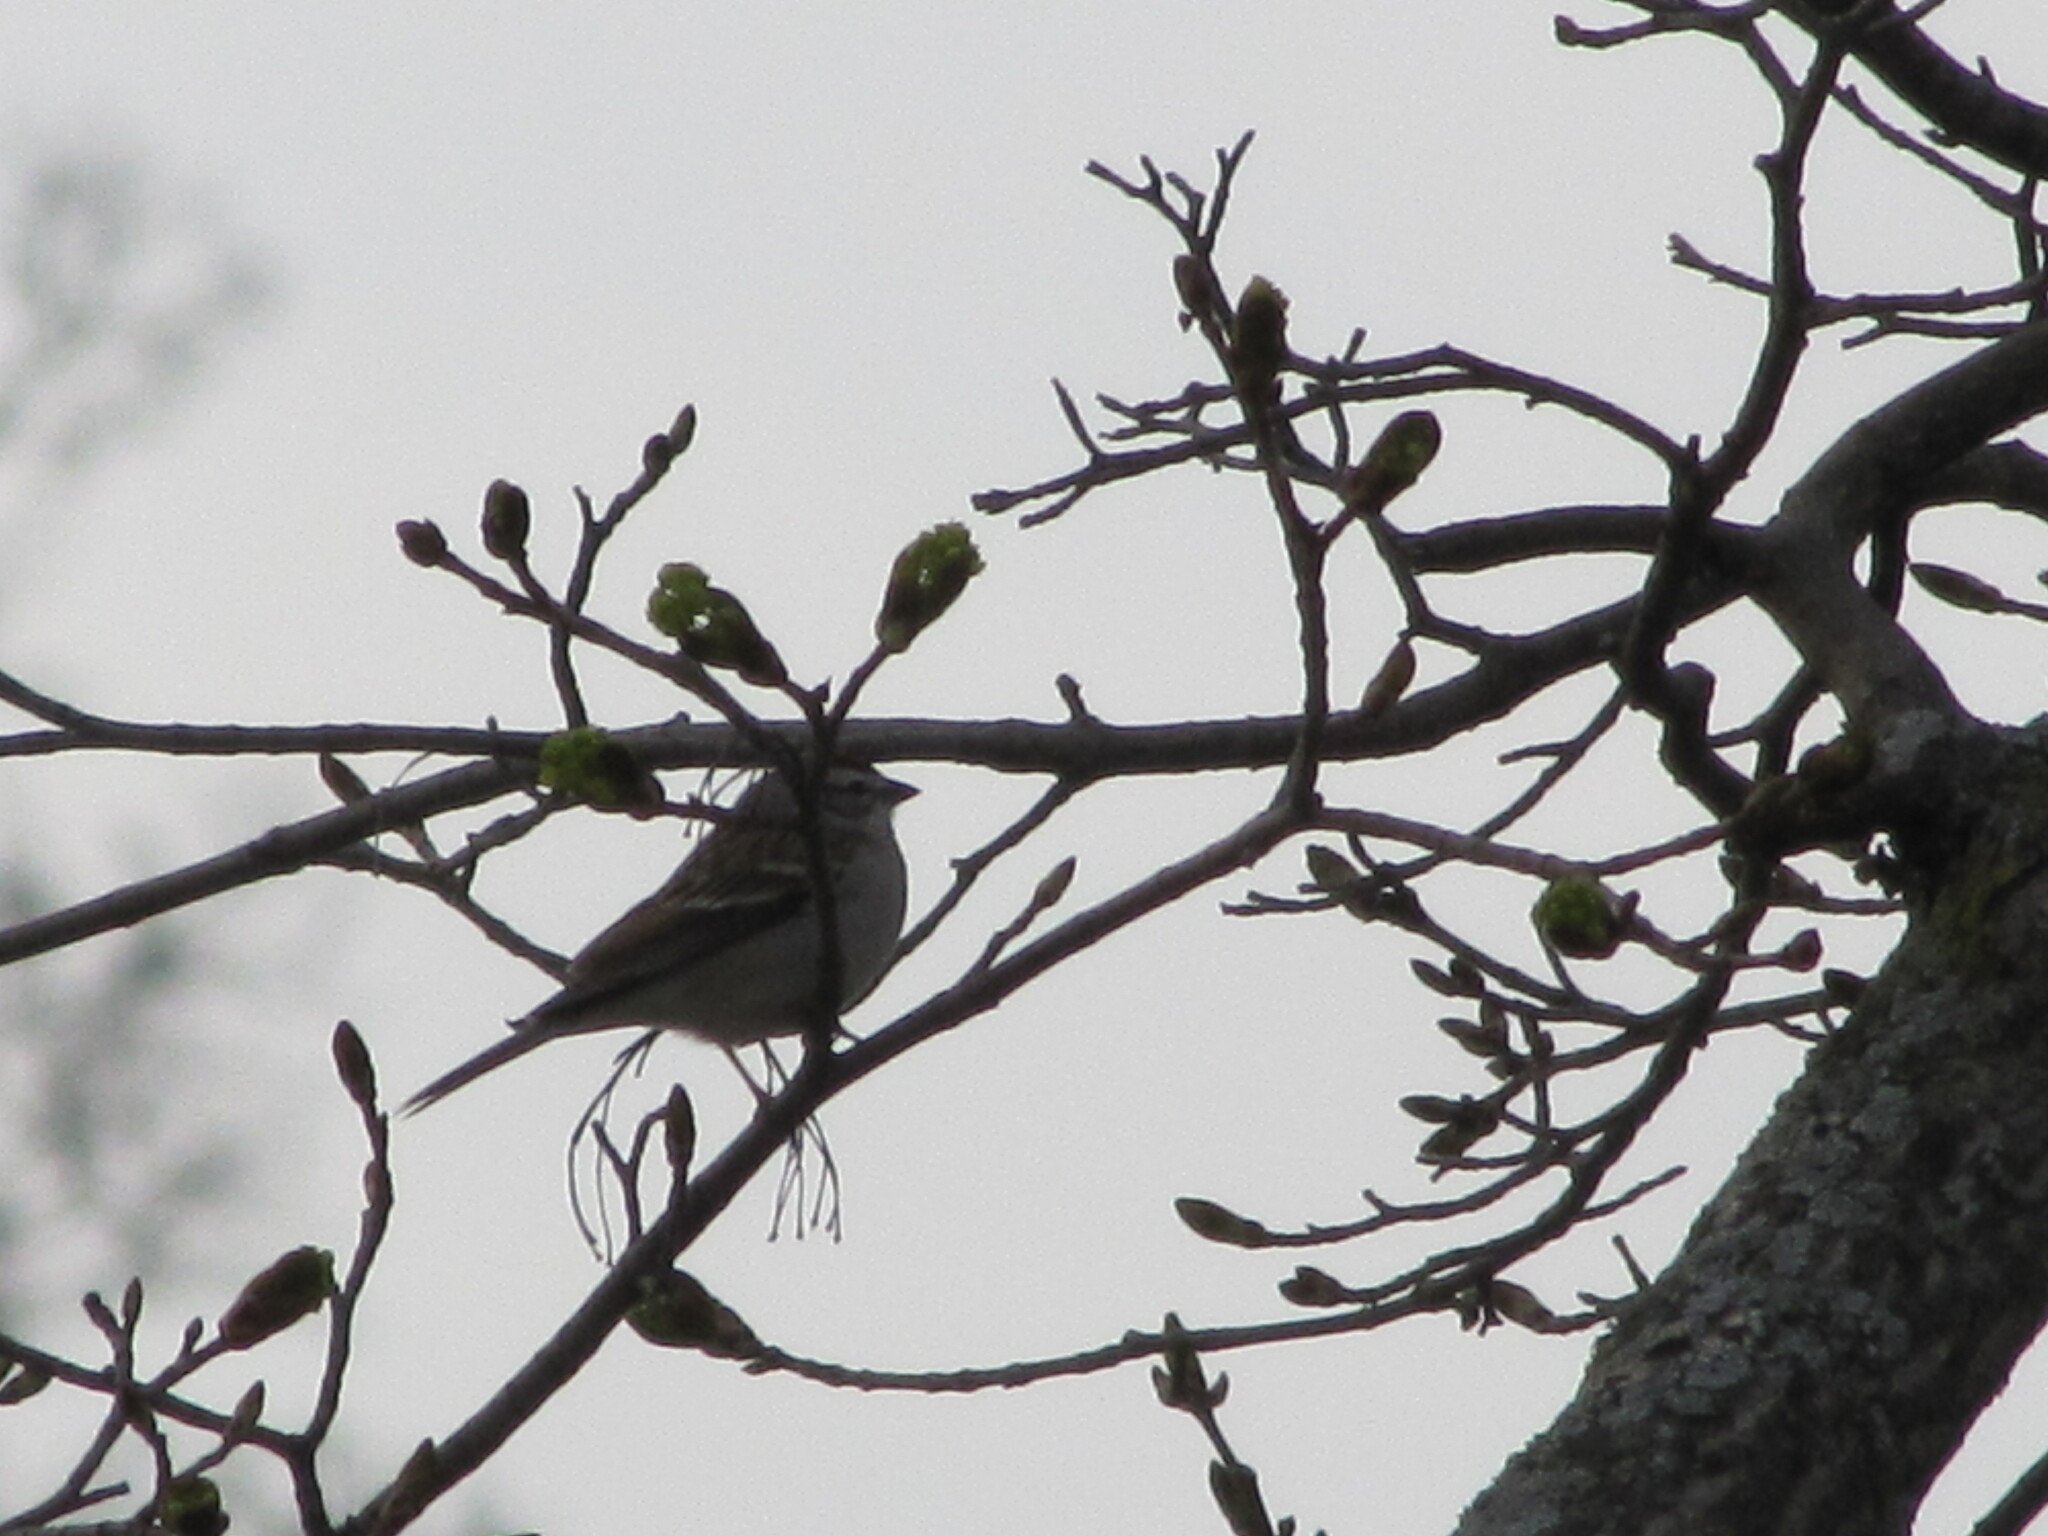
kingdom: Animalia
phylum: Chordata
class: Aves
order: Passeriformes
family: Passerellidae
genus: Spizella
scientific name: Spizella passerina
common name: Chipping sparrow
